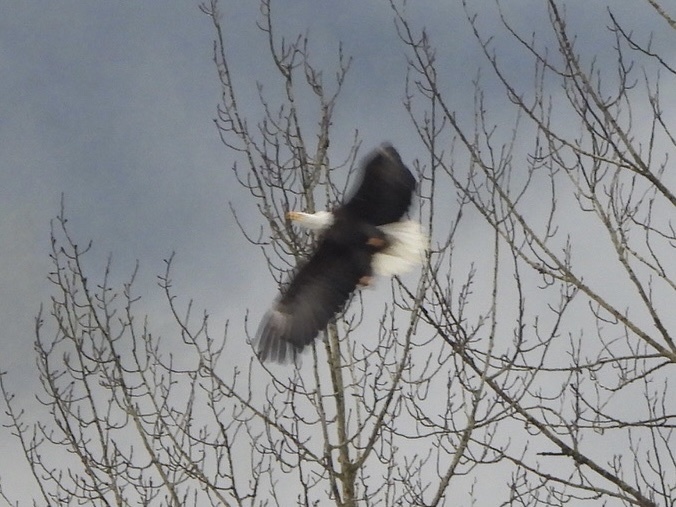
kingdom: Animalia
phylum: Chordata
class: Aves
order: Accipitriformes
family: Accipitridae
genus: Haliaeetus
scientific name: Haliaeetus leucocephalus
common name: Bald eagle
